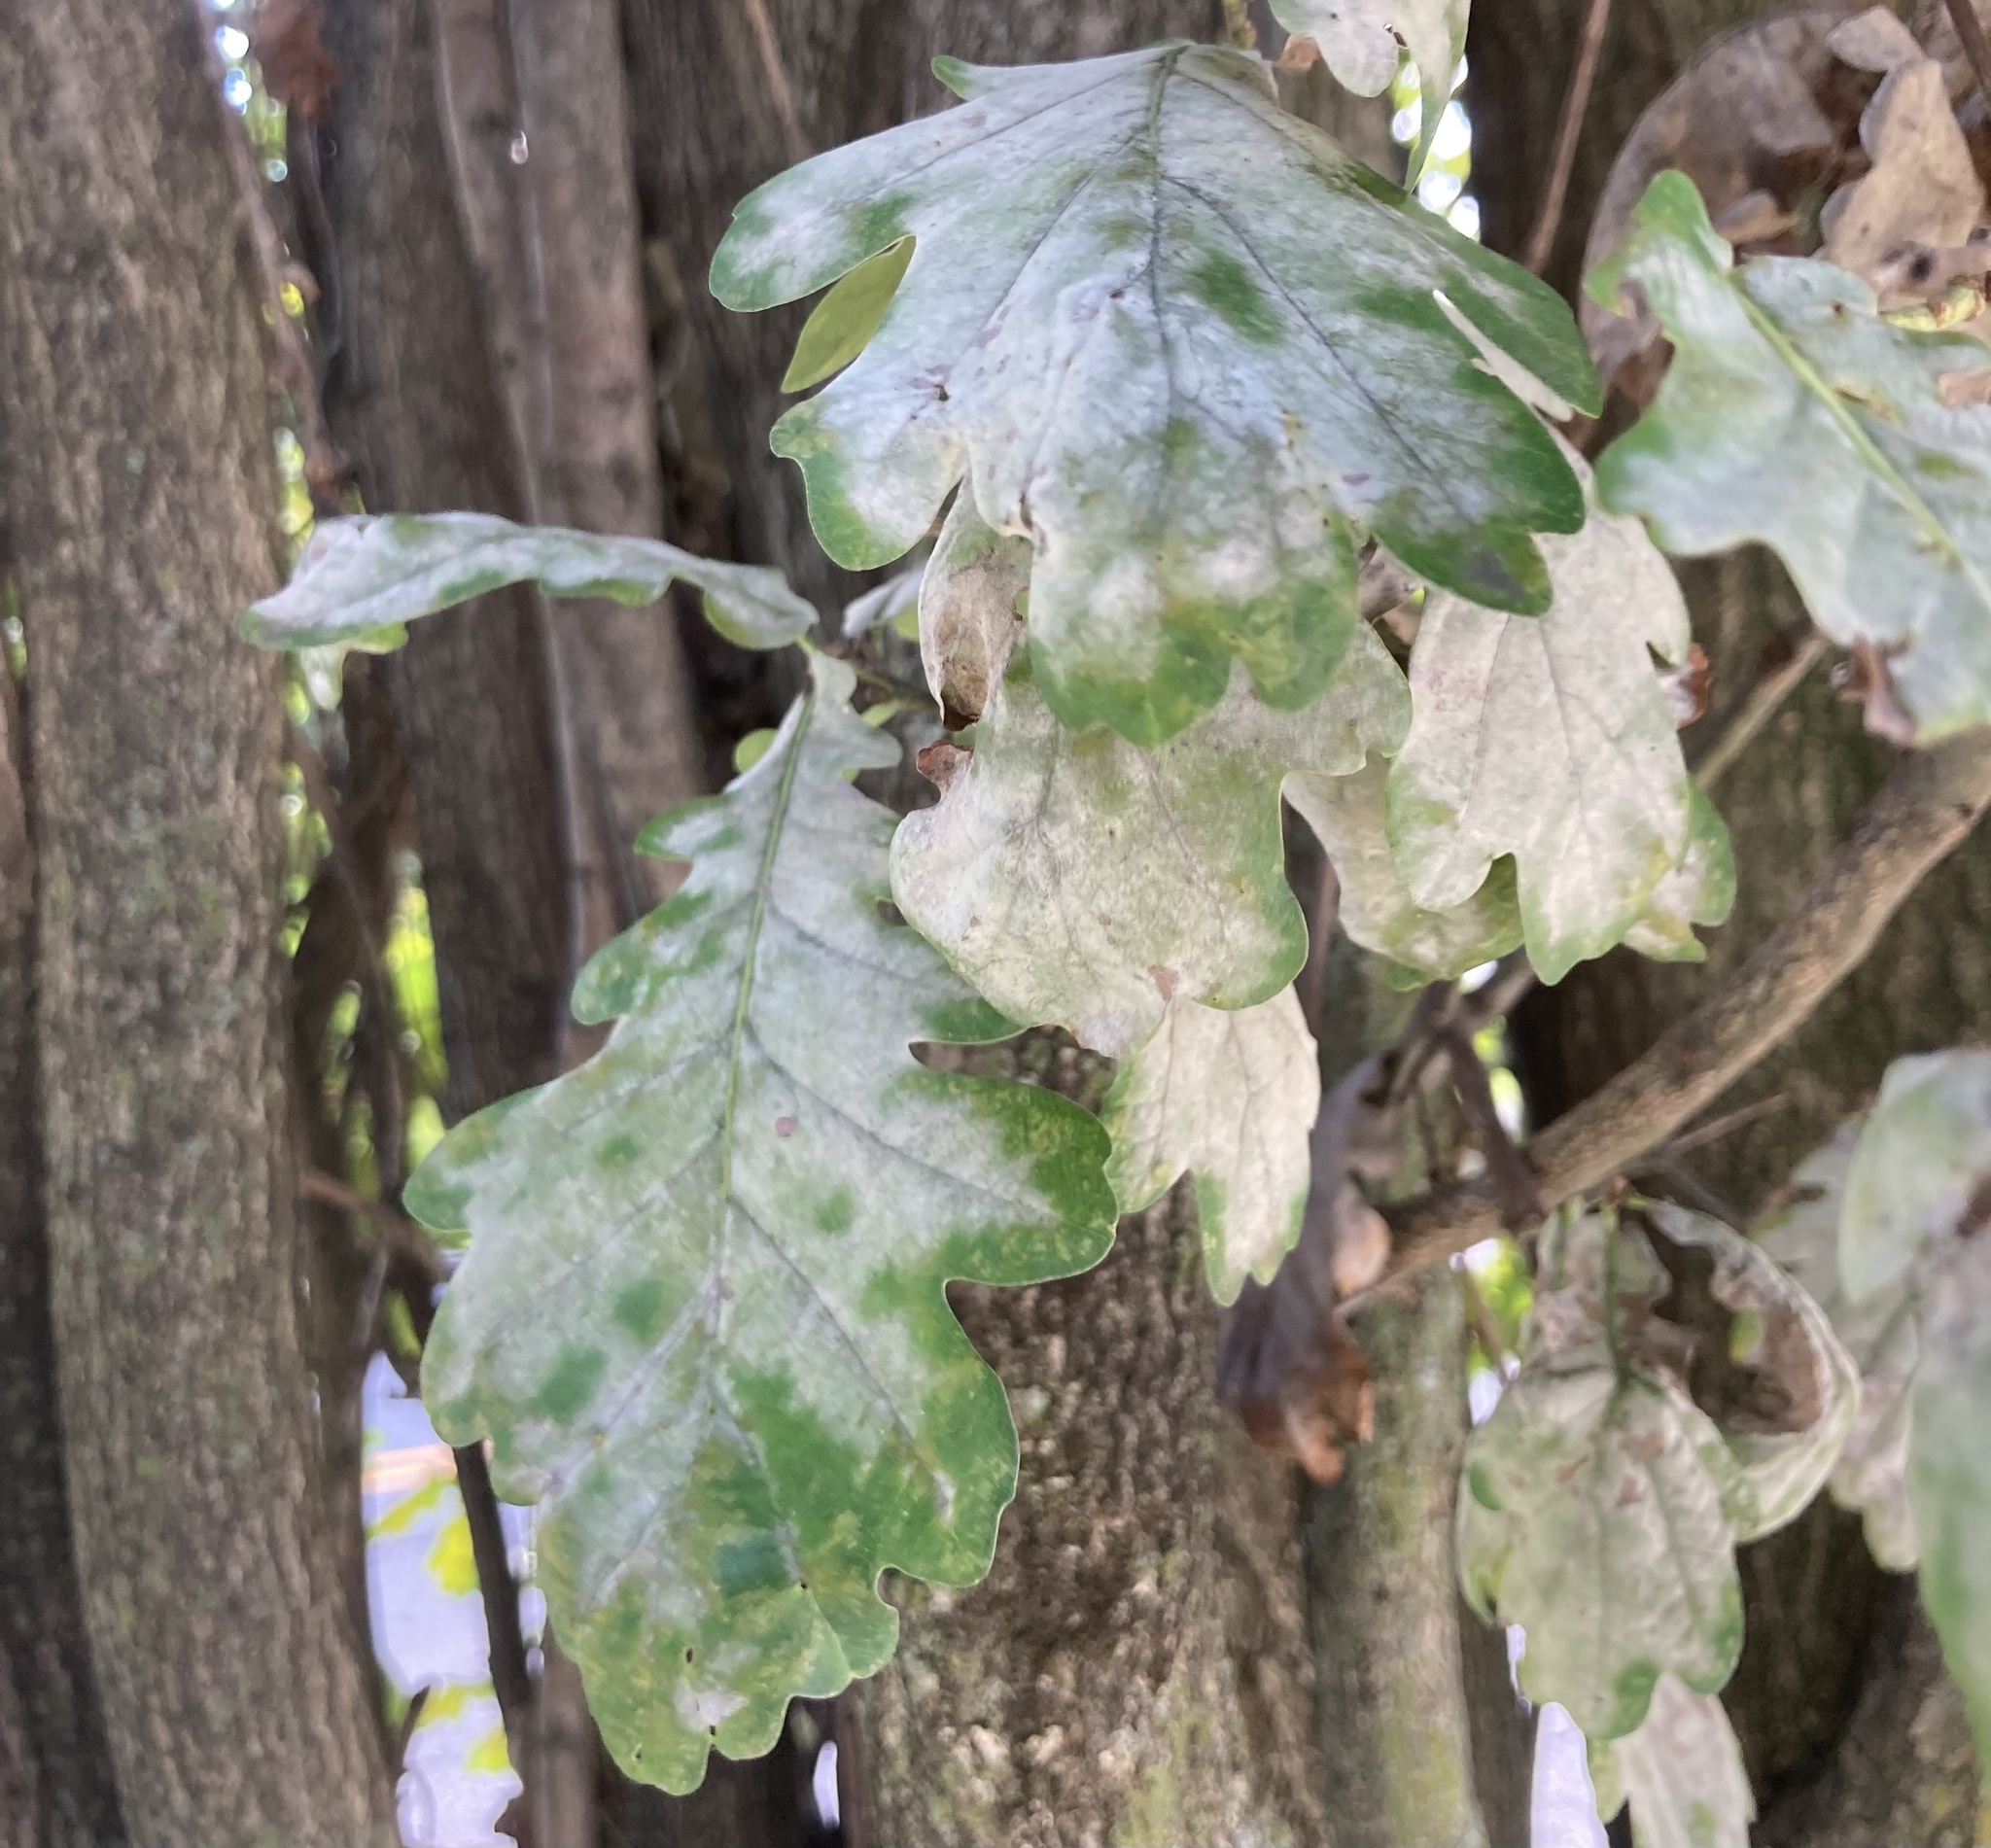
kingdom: Fungi
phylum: Ascomycota
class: Leotiomycetes
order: Helotiales
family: Erysiphaceae
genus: Erysiphe
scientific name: Erysiphe alphitoides
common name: Oak mildew
